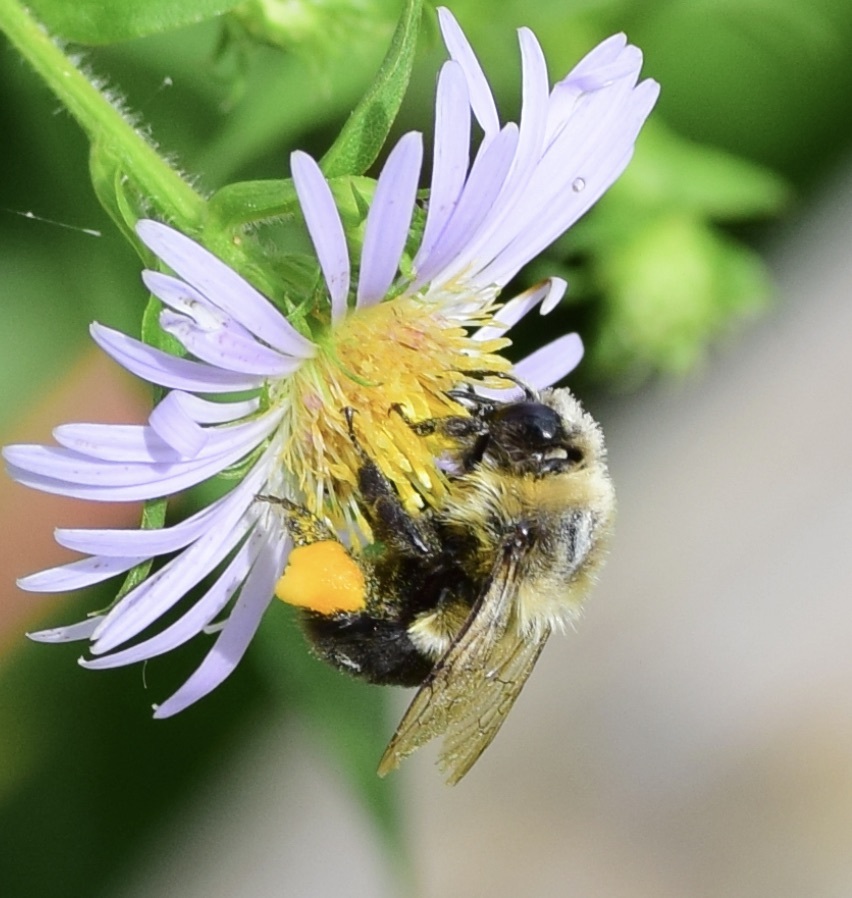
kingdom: Animalia
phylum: Arthropoda
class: Insecta
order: Hymenoptera
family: Apidae
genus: Bombus
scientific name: Bombus impatiens
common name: Common eastern bumble bee
